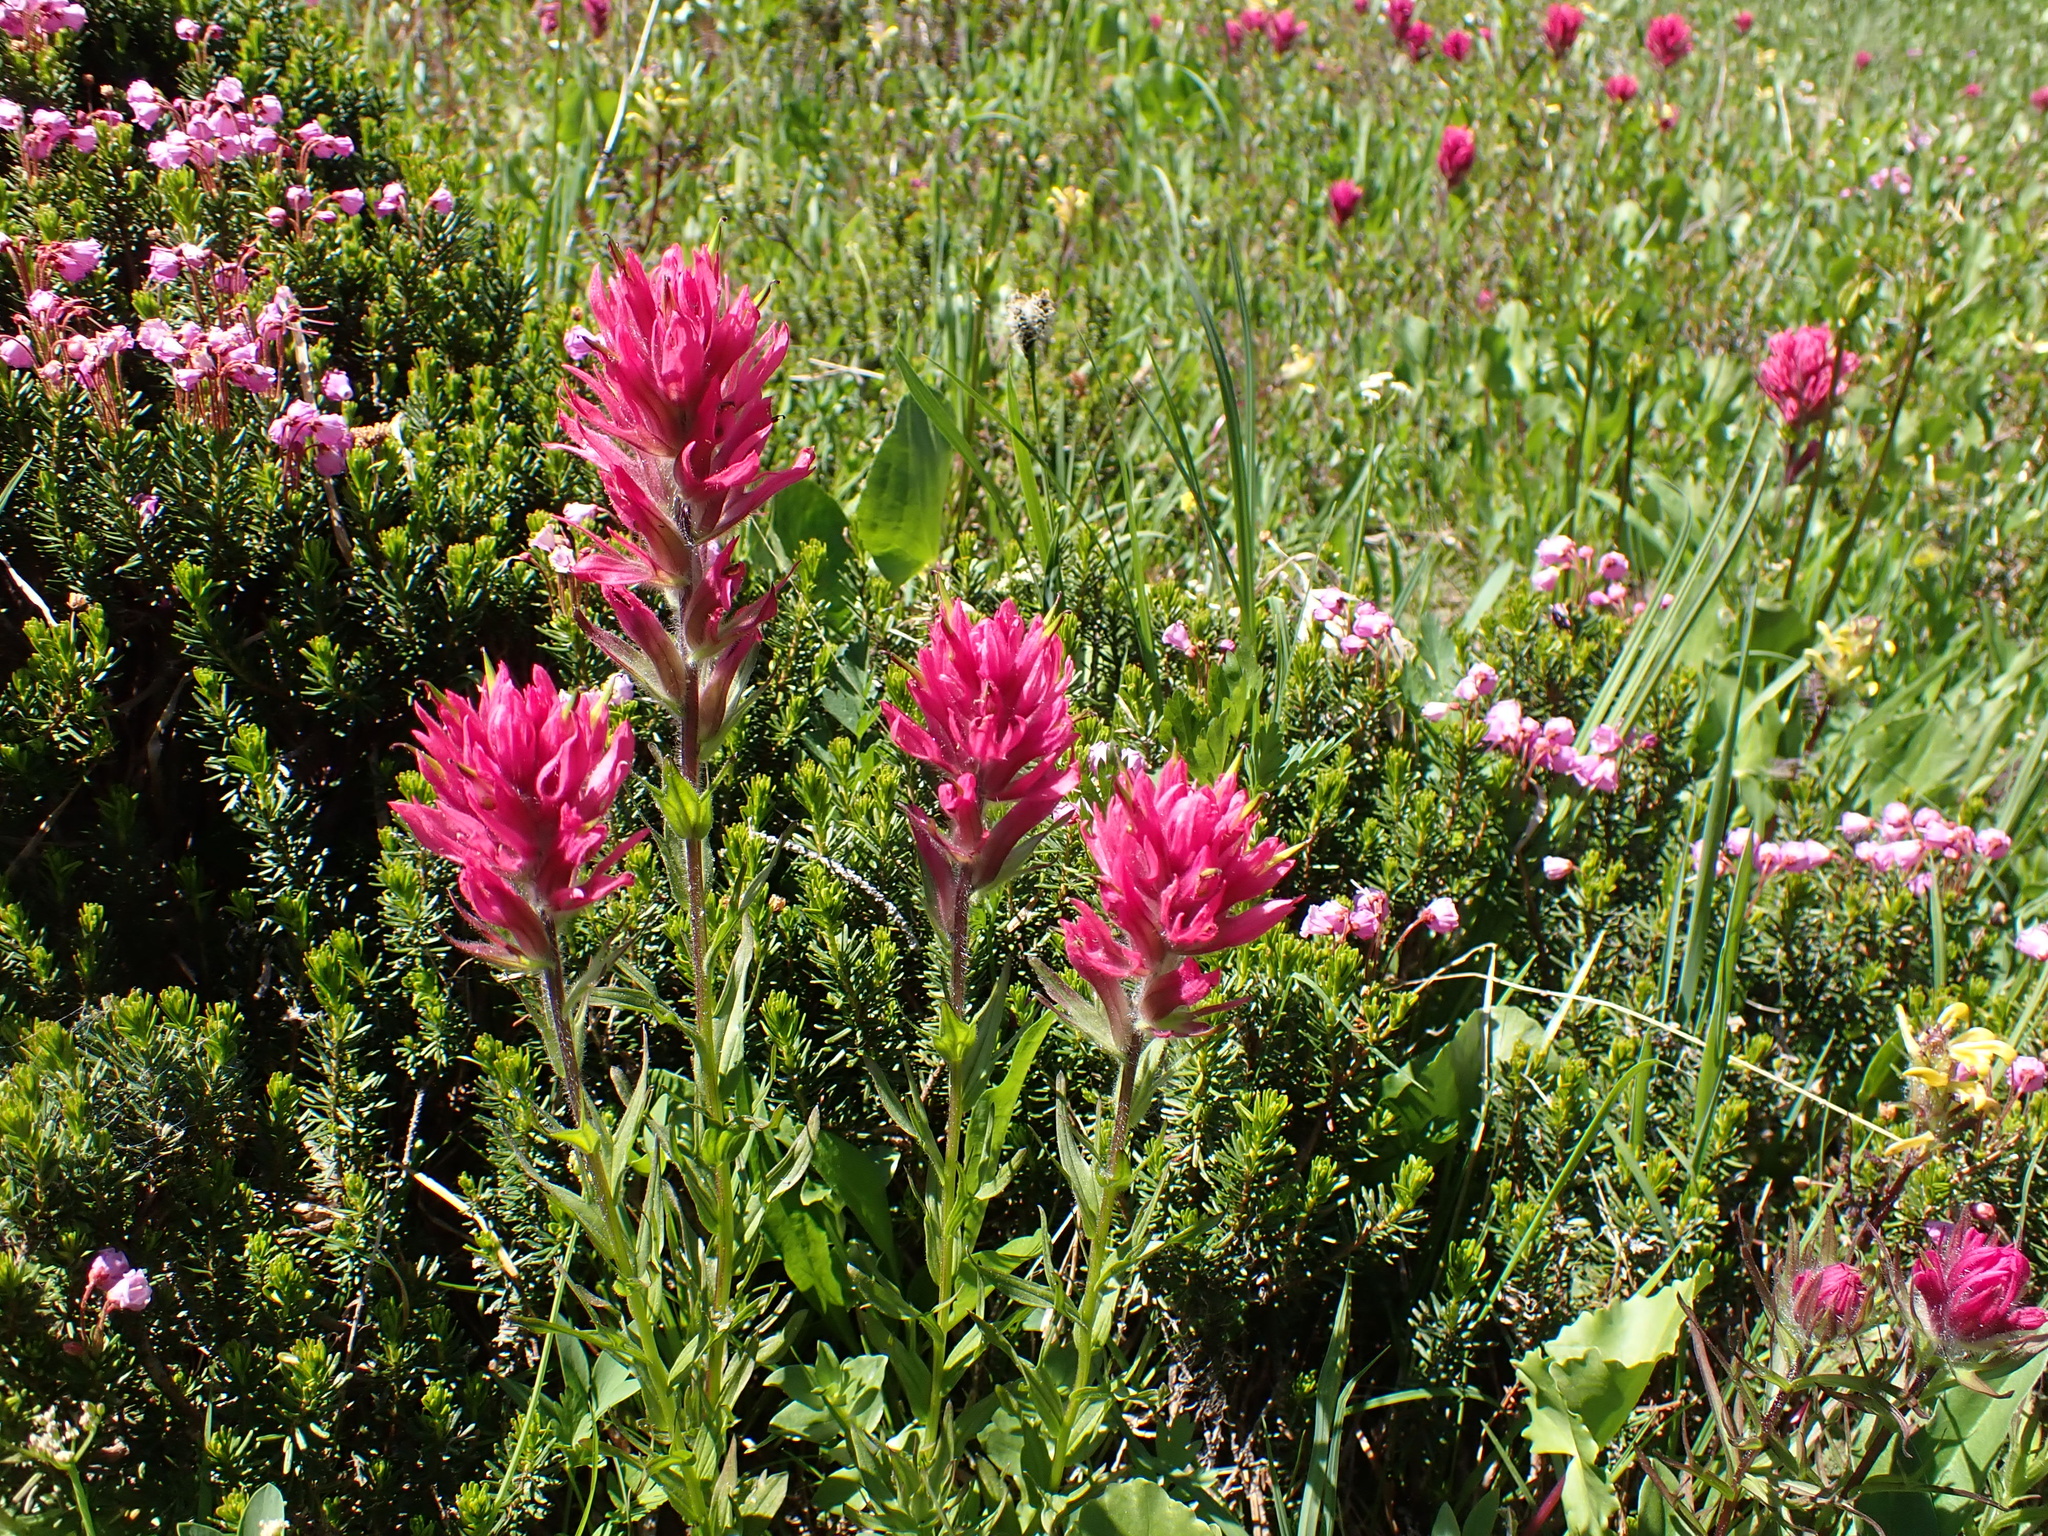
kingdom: Plantae
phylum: Tracheophyta
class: Magnoliopsida
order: Lamiales
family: Orobanchaceae
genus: Castilleja
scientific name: Castilleja parviflora
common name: Mountain paintbrush
